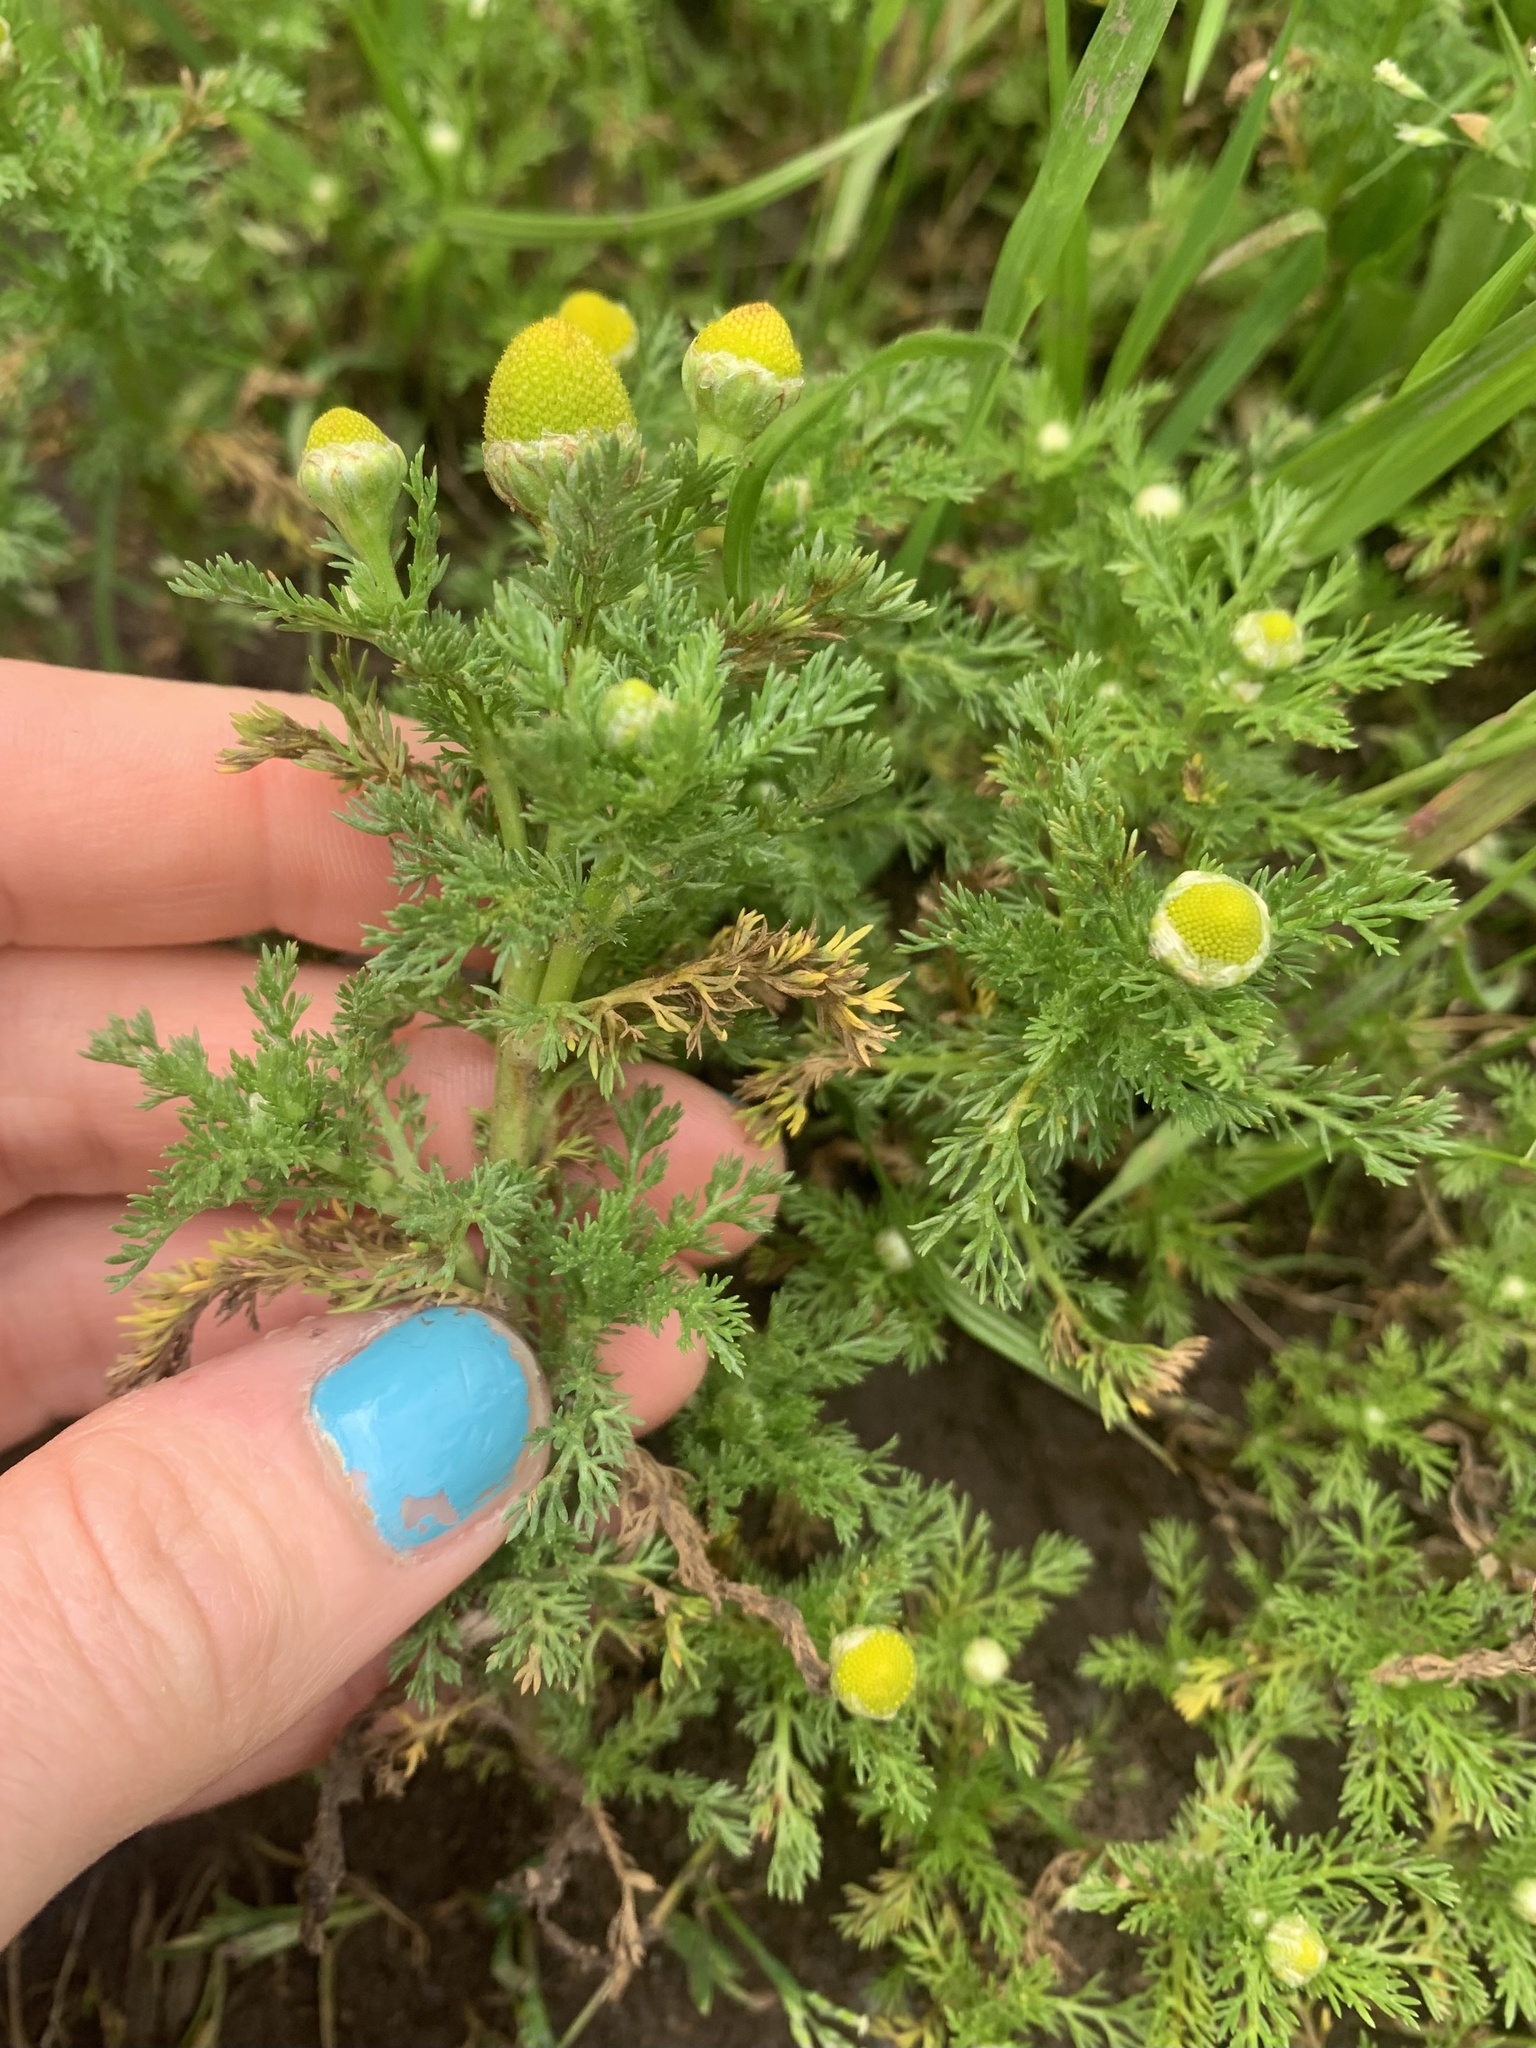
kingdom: Plantae
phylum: Tracheophyta
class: Magnoliopsida
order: Asterales
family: Asteraceae
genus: Matricaria
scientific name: Matricaria discoidea
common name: Disc mayweed
